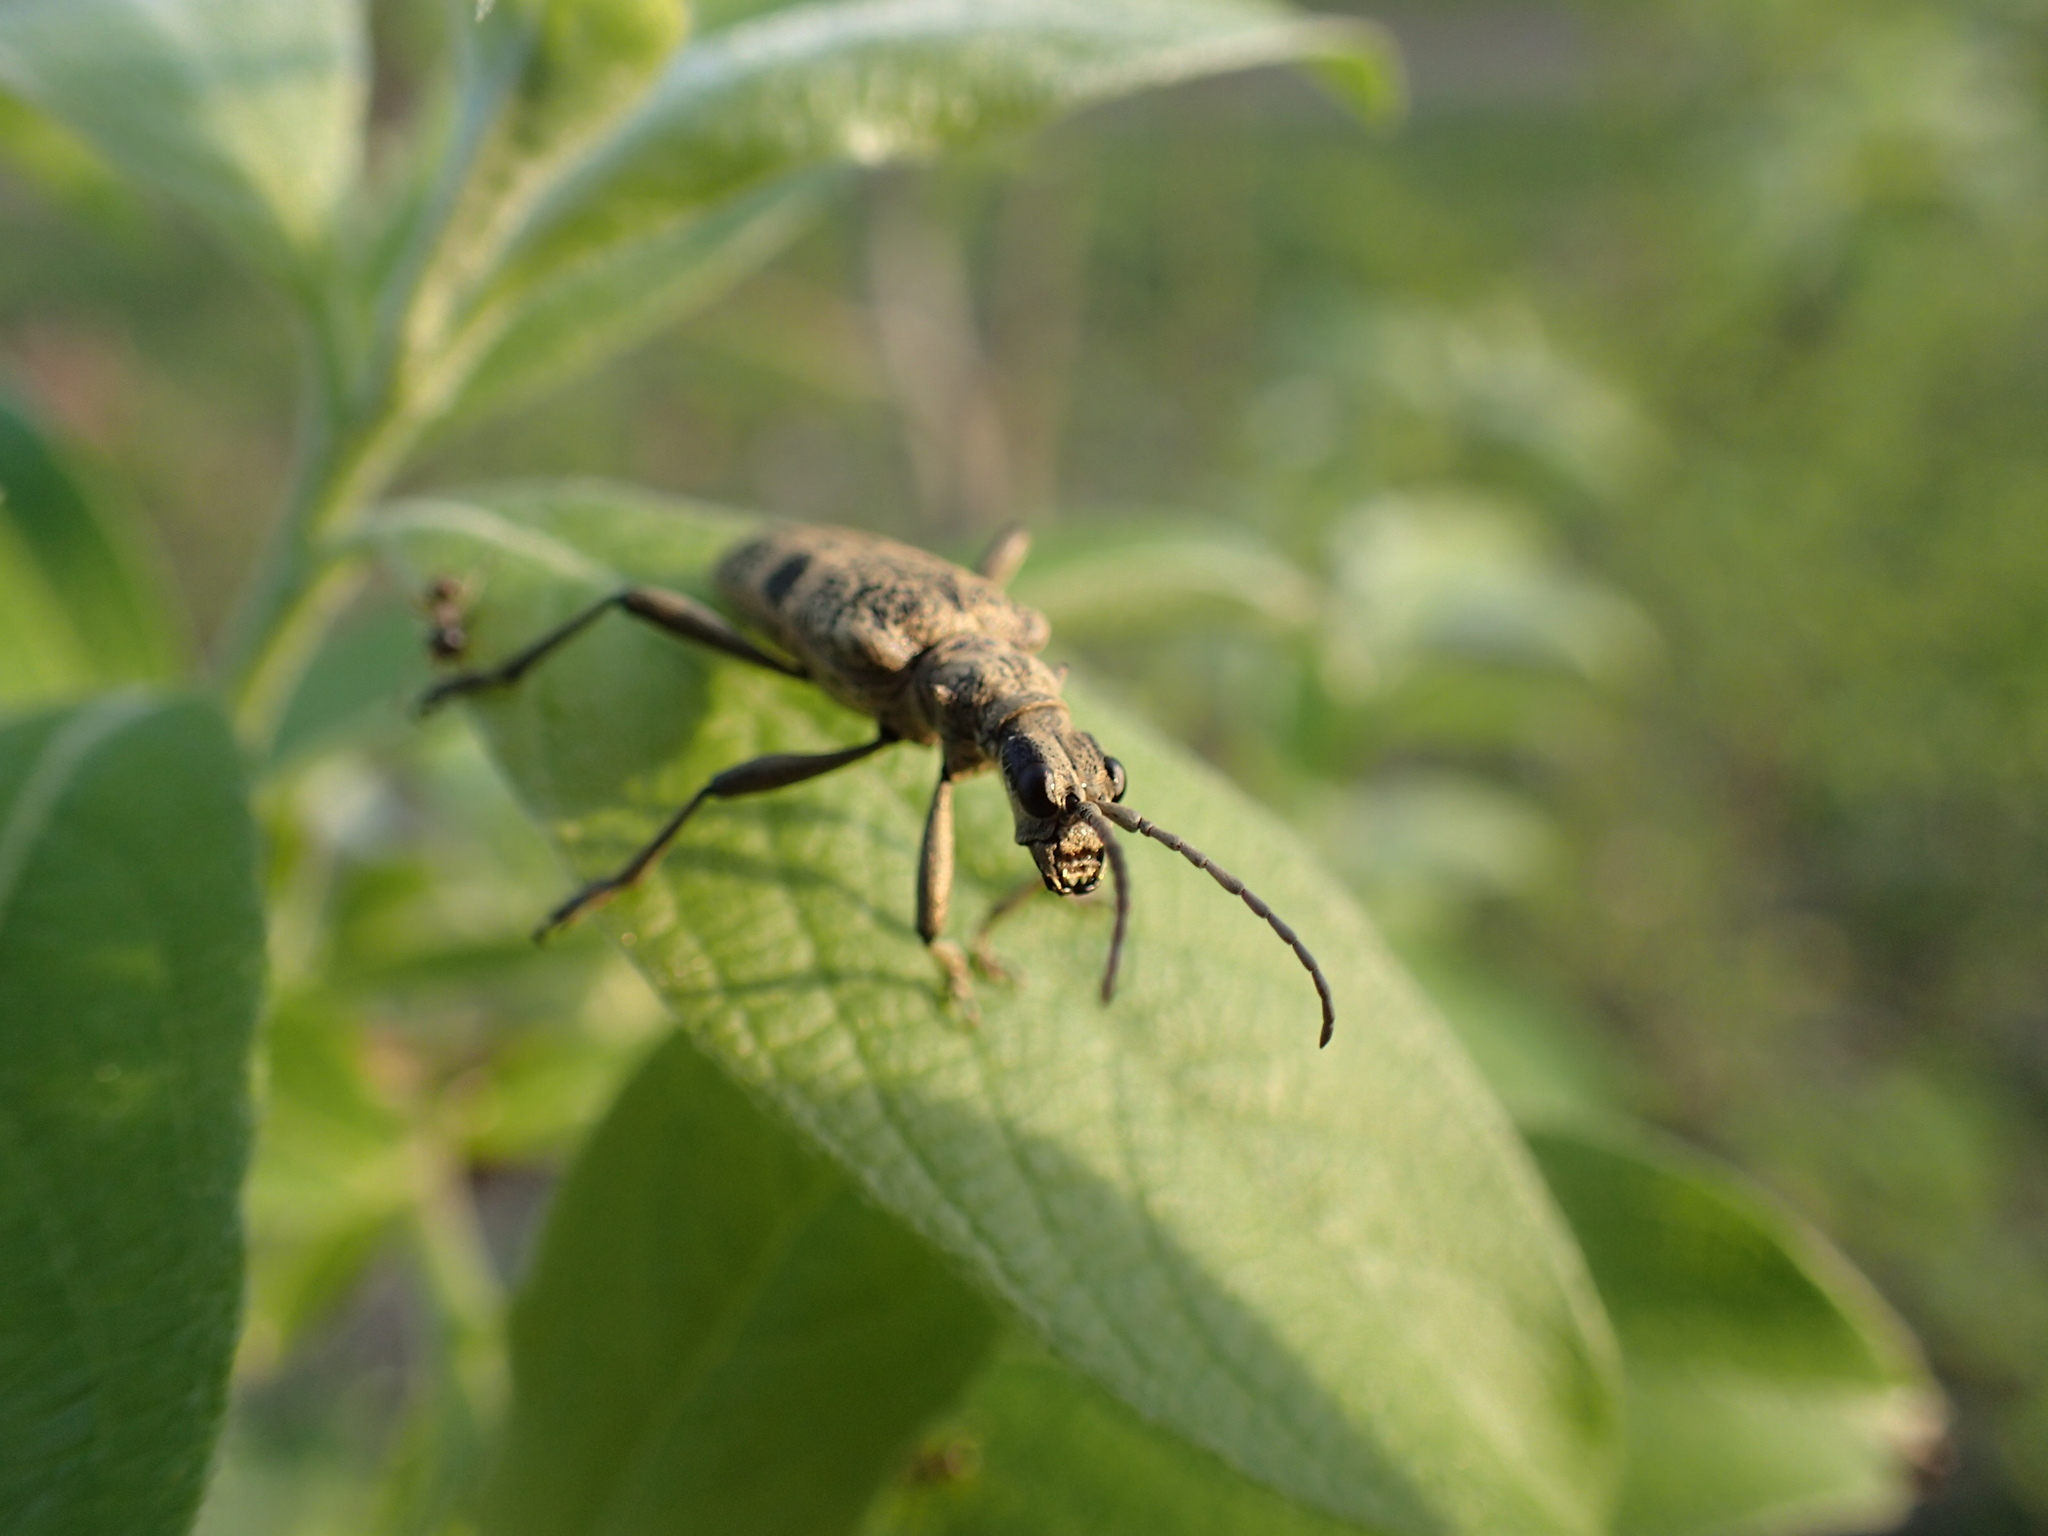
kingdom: Animalia
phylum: Arthropoda
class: Insecta
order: Coleoptera
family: Cerambycidae
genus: Rhagium
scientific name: Rhagium mordax
